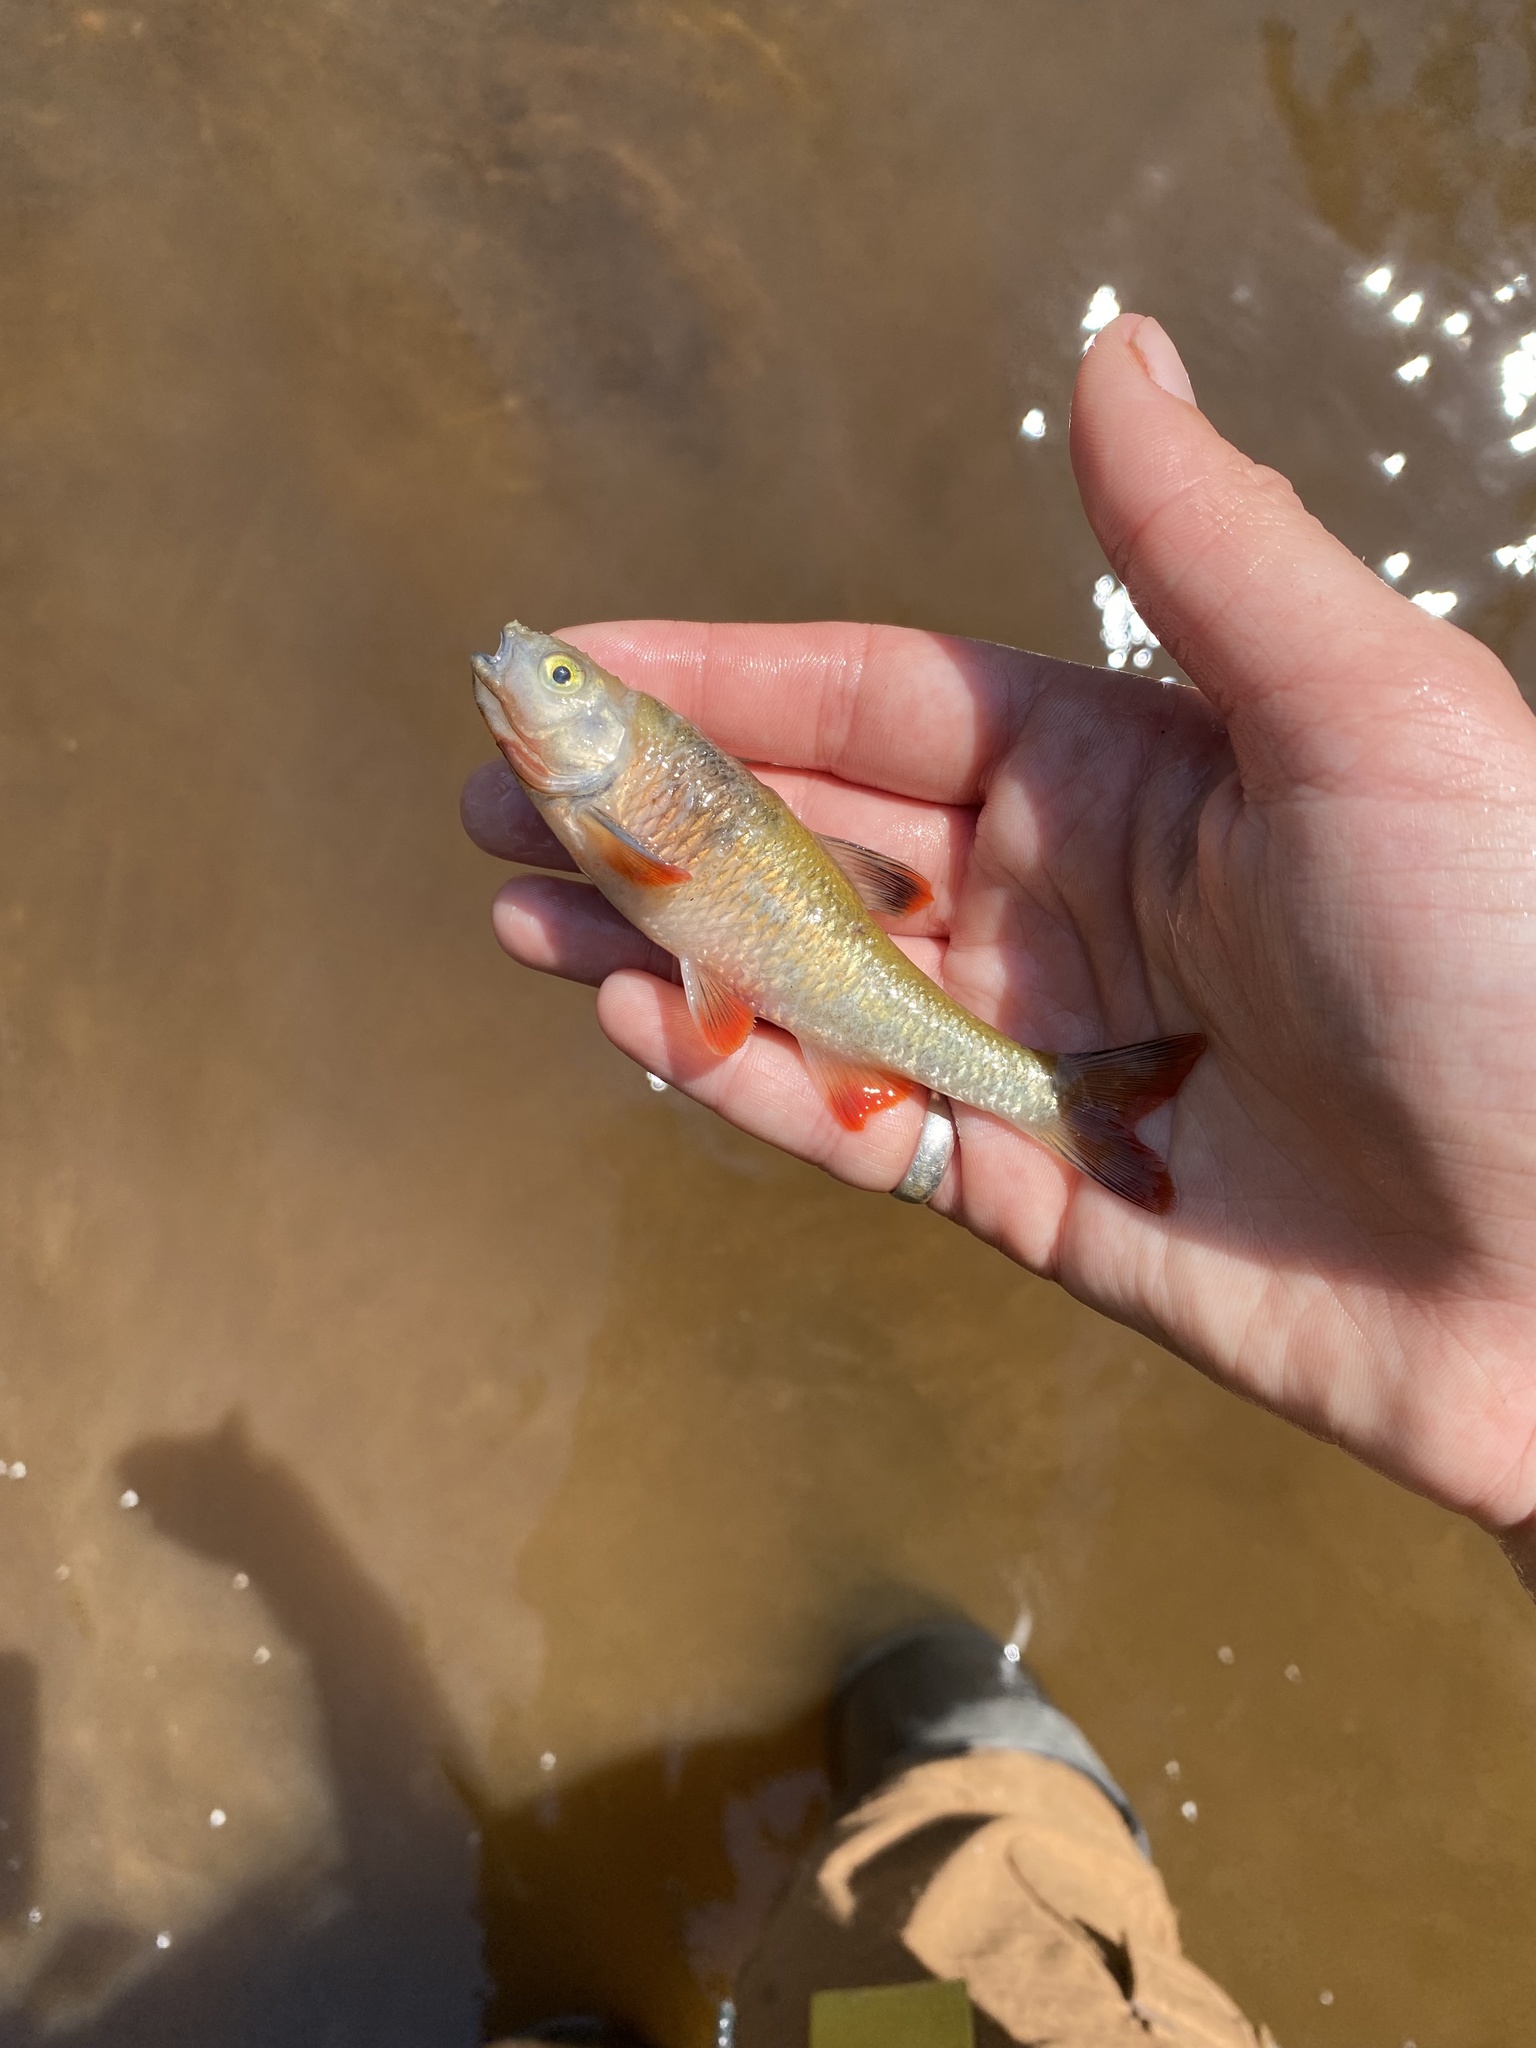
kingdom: Animalia
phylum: Chordata
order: Cypriniformes
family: Cyprinidae
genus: Luxilus
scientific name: Luxilus cornutus
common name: Common shiner
